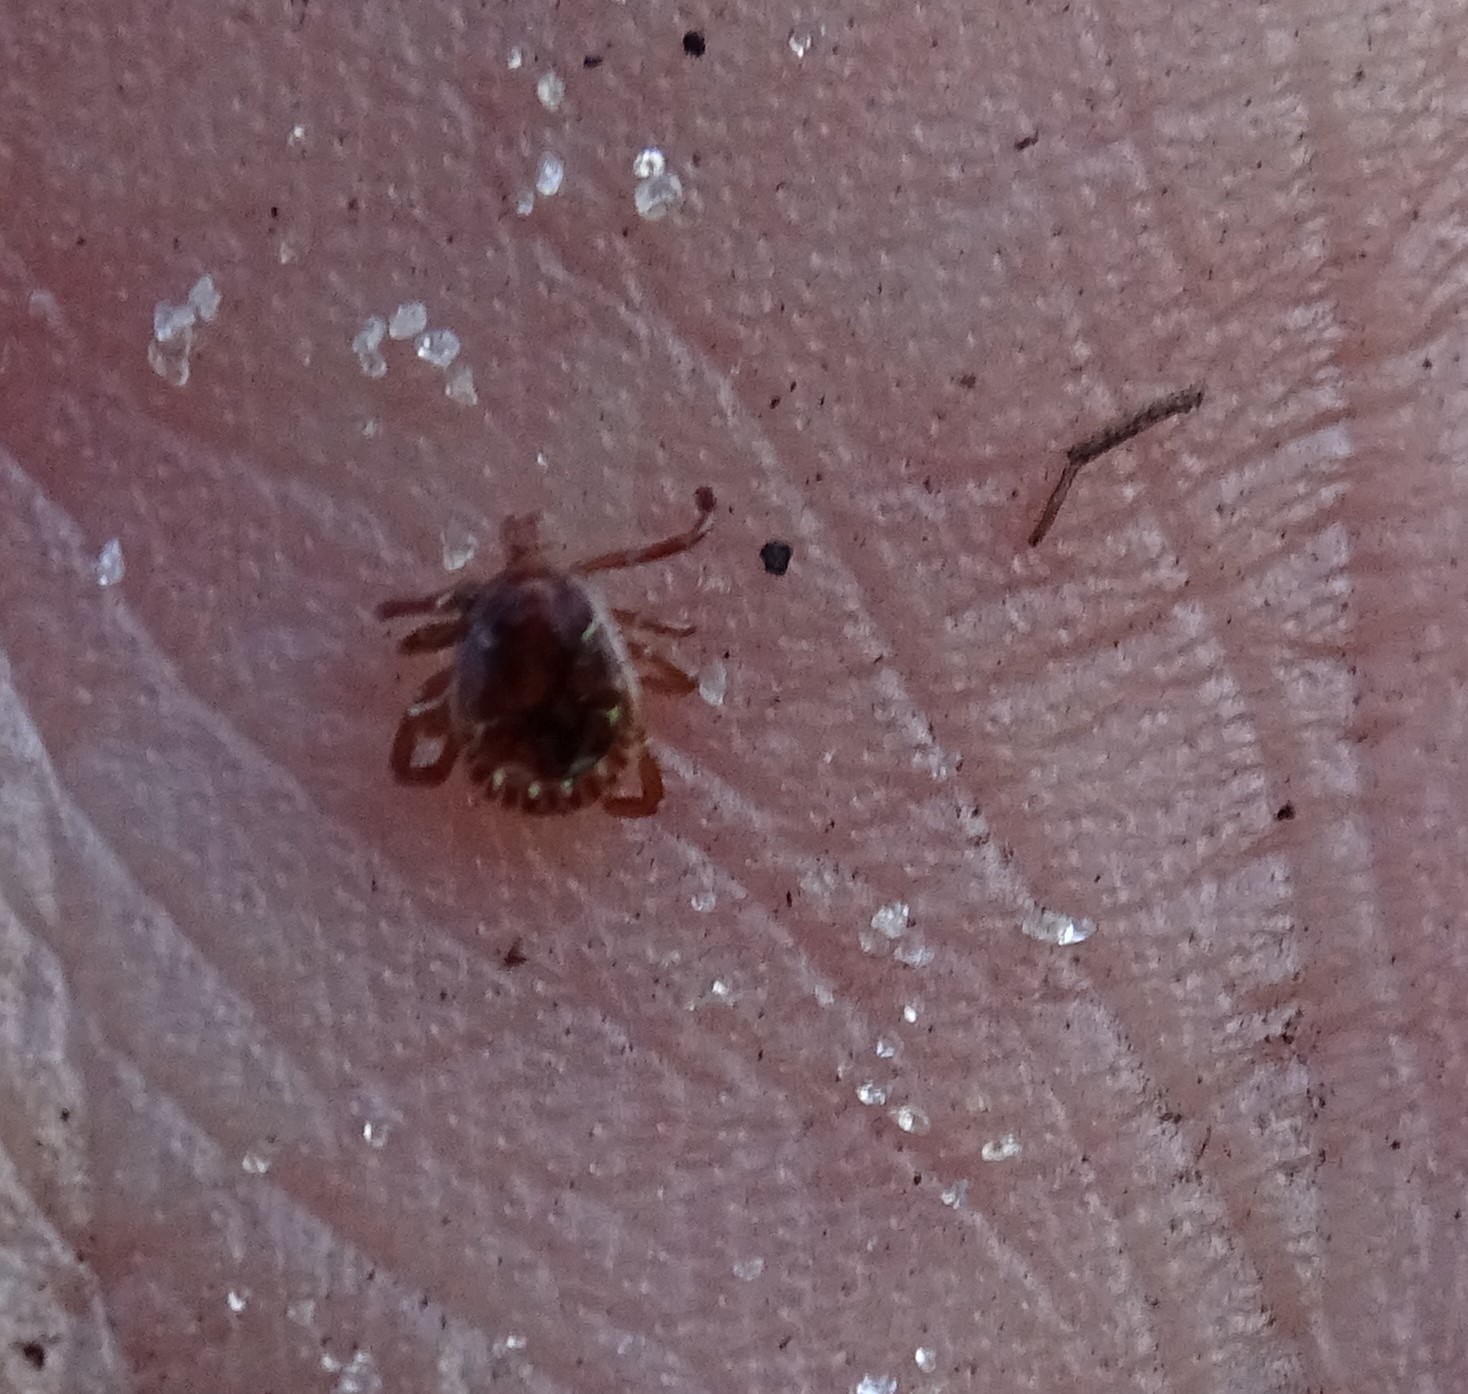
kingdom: Animalia
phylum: Arthropoda
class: Arachnida
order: Ixodida
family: Ixodidae
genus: Amblyomma
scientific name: Amblyomma americanum
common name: Lone star tick
